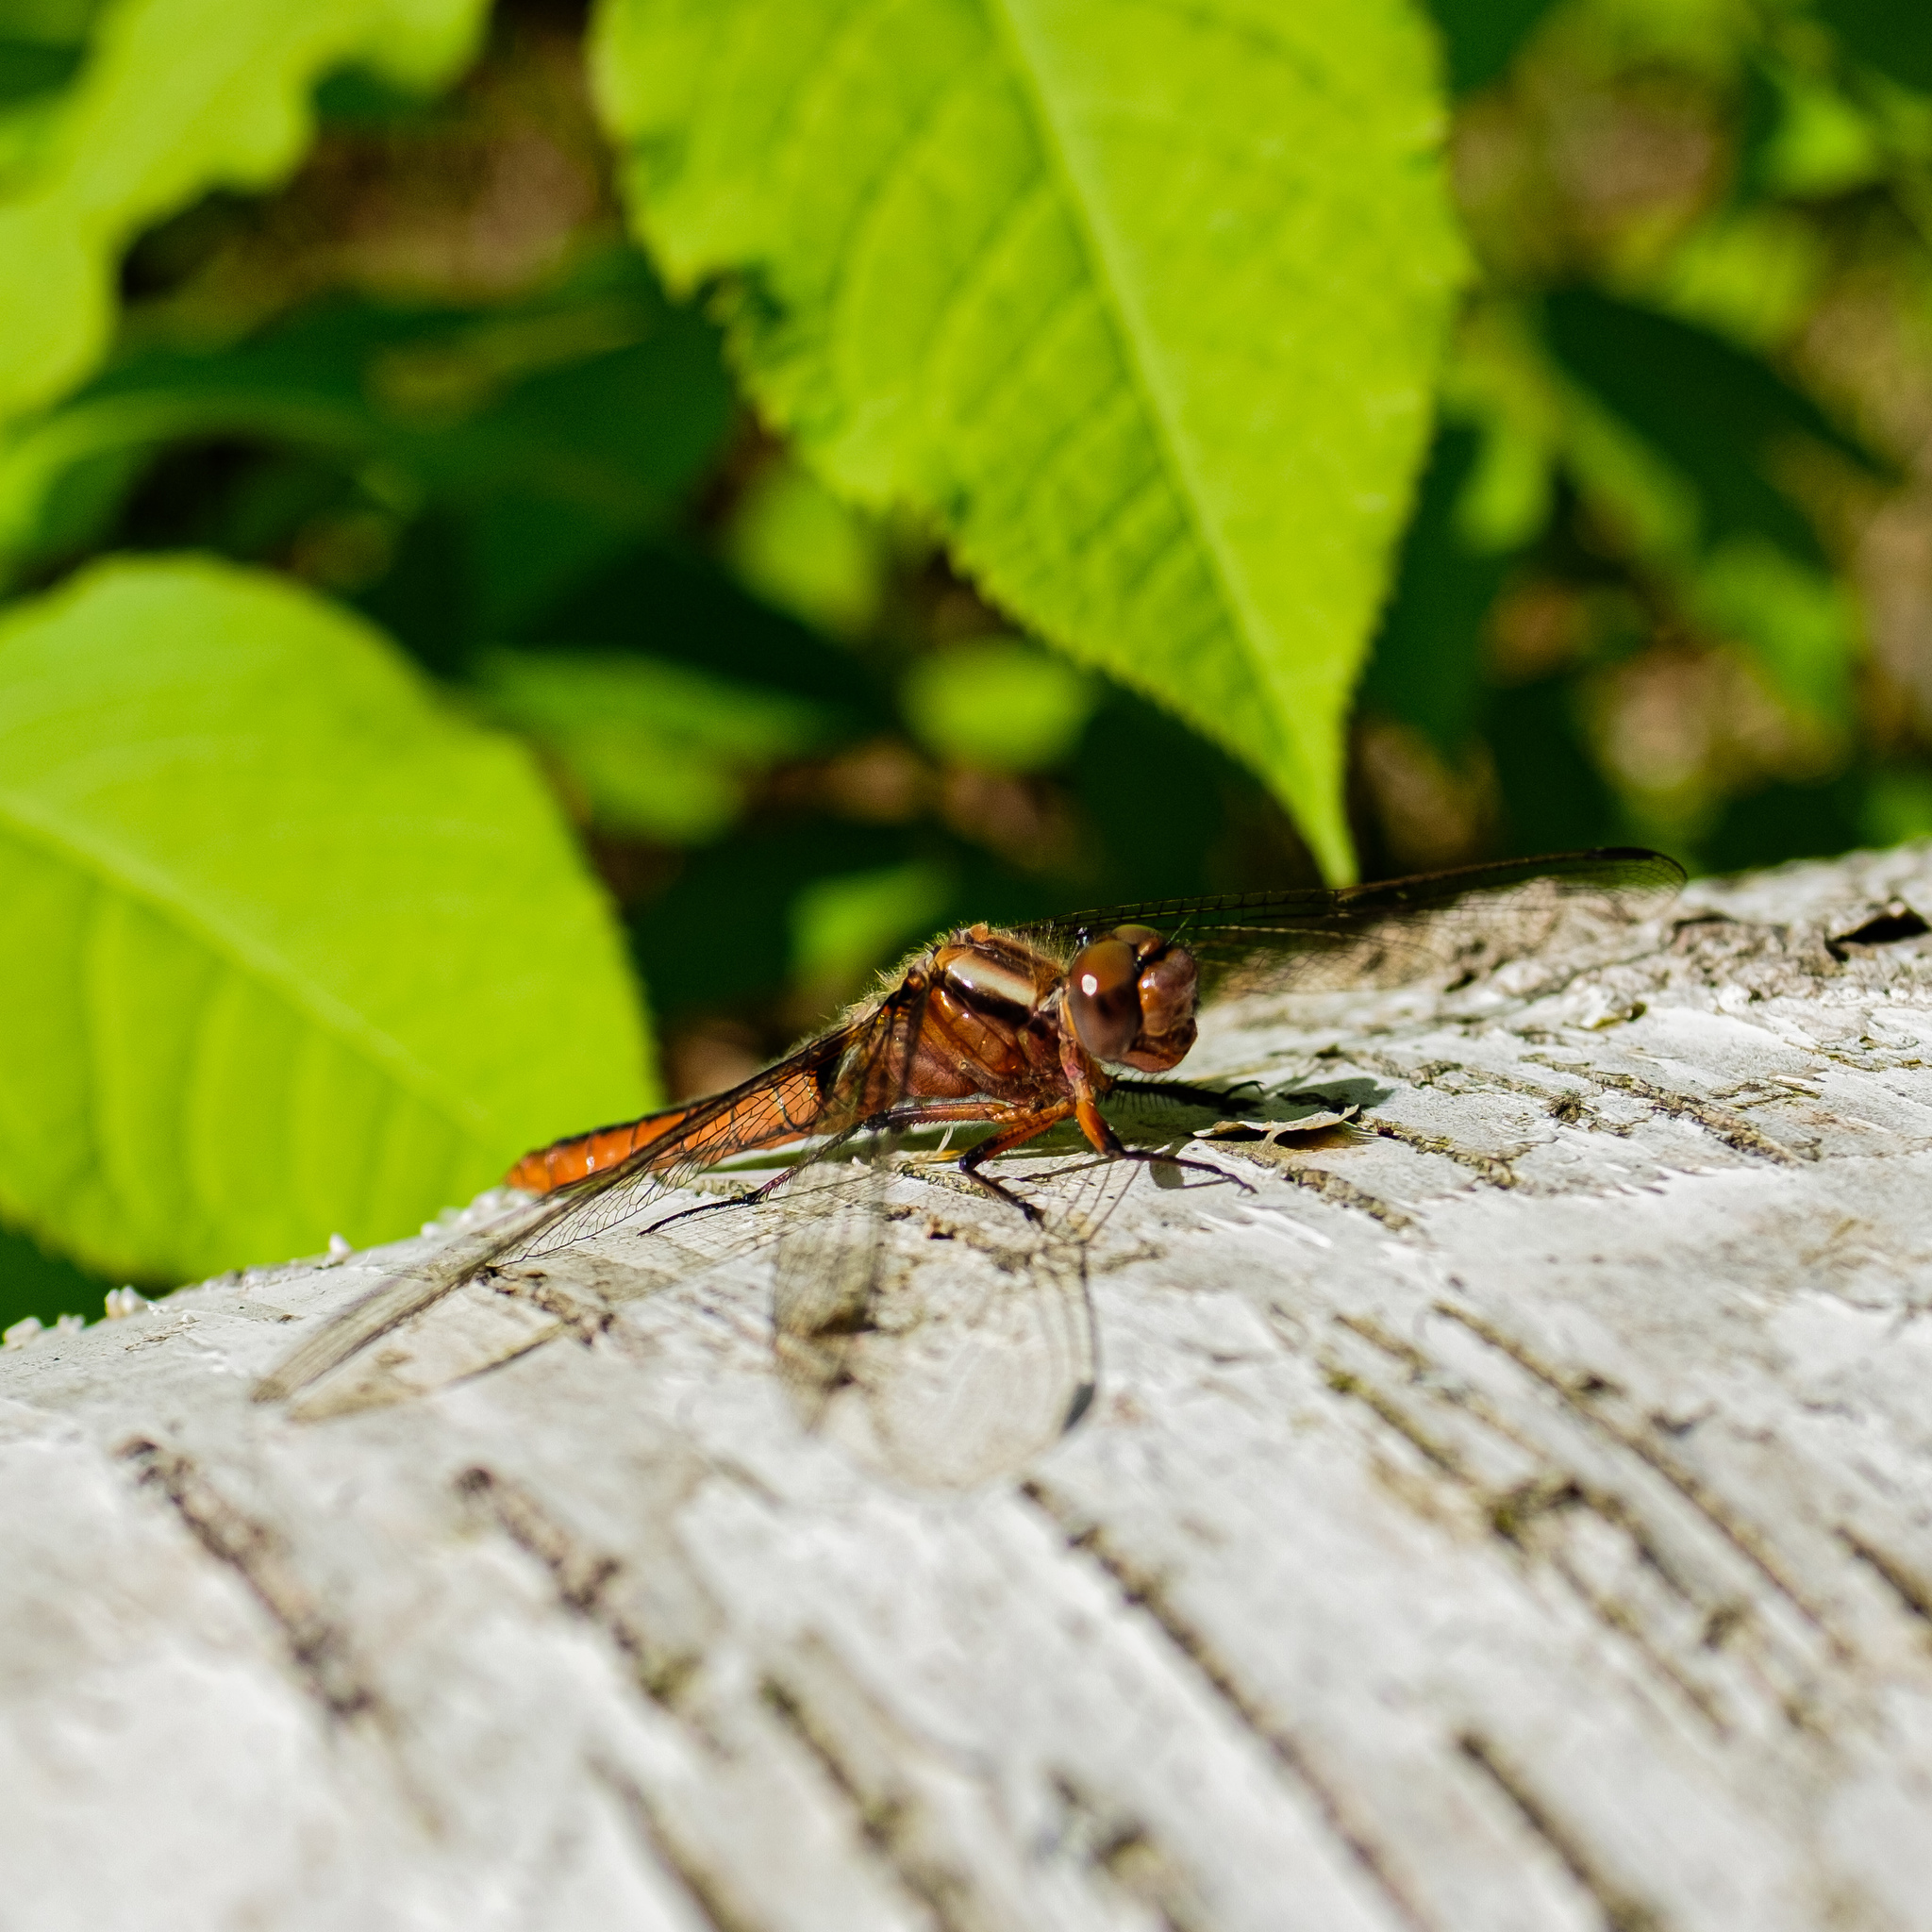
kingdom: Animalia
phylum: Arthropoda
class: Insecta
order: Odonata
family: Libellulidae
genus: Ladona
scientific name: Ladona julia
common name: Chalk-fronted corporal
